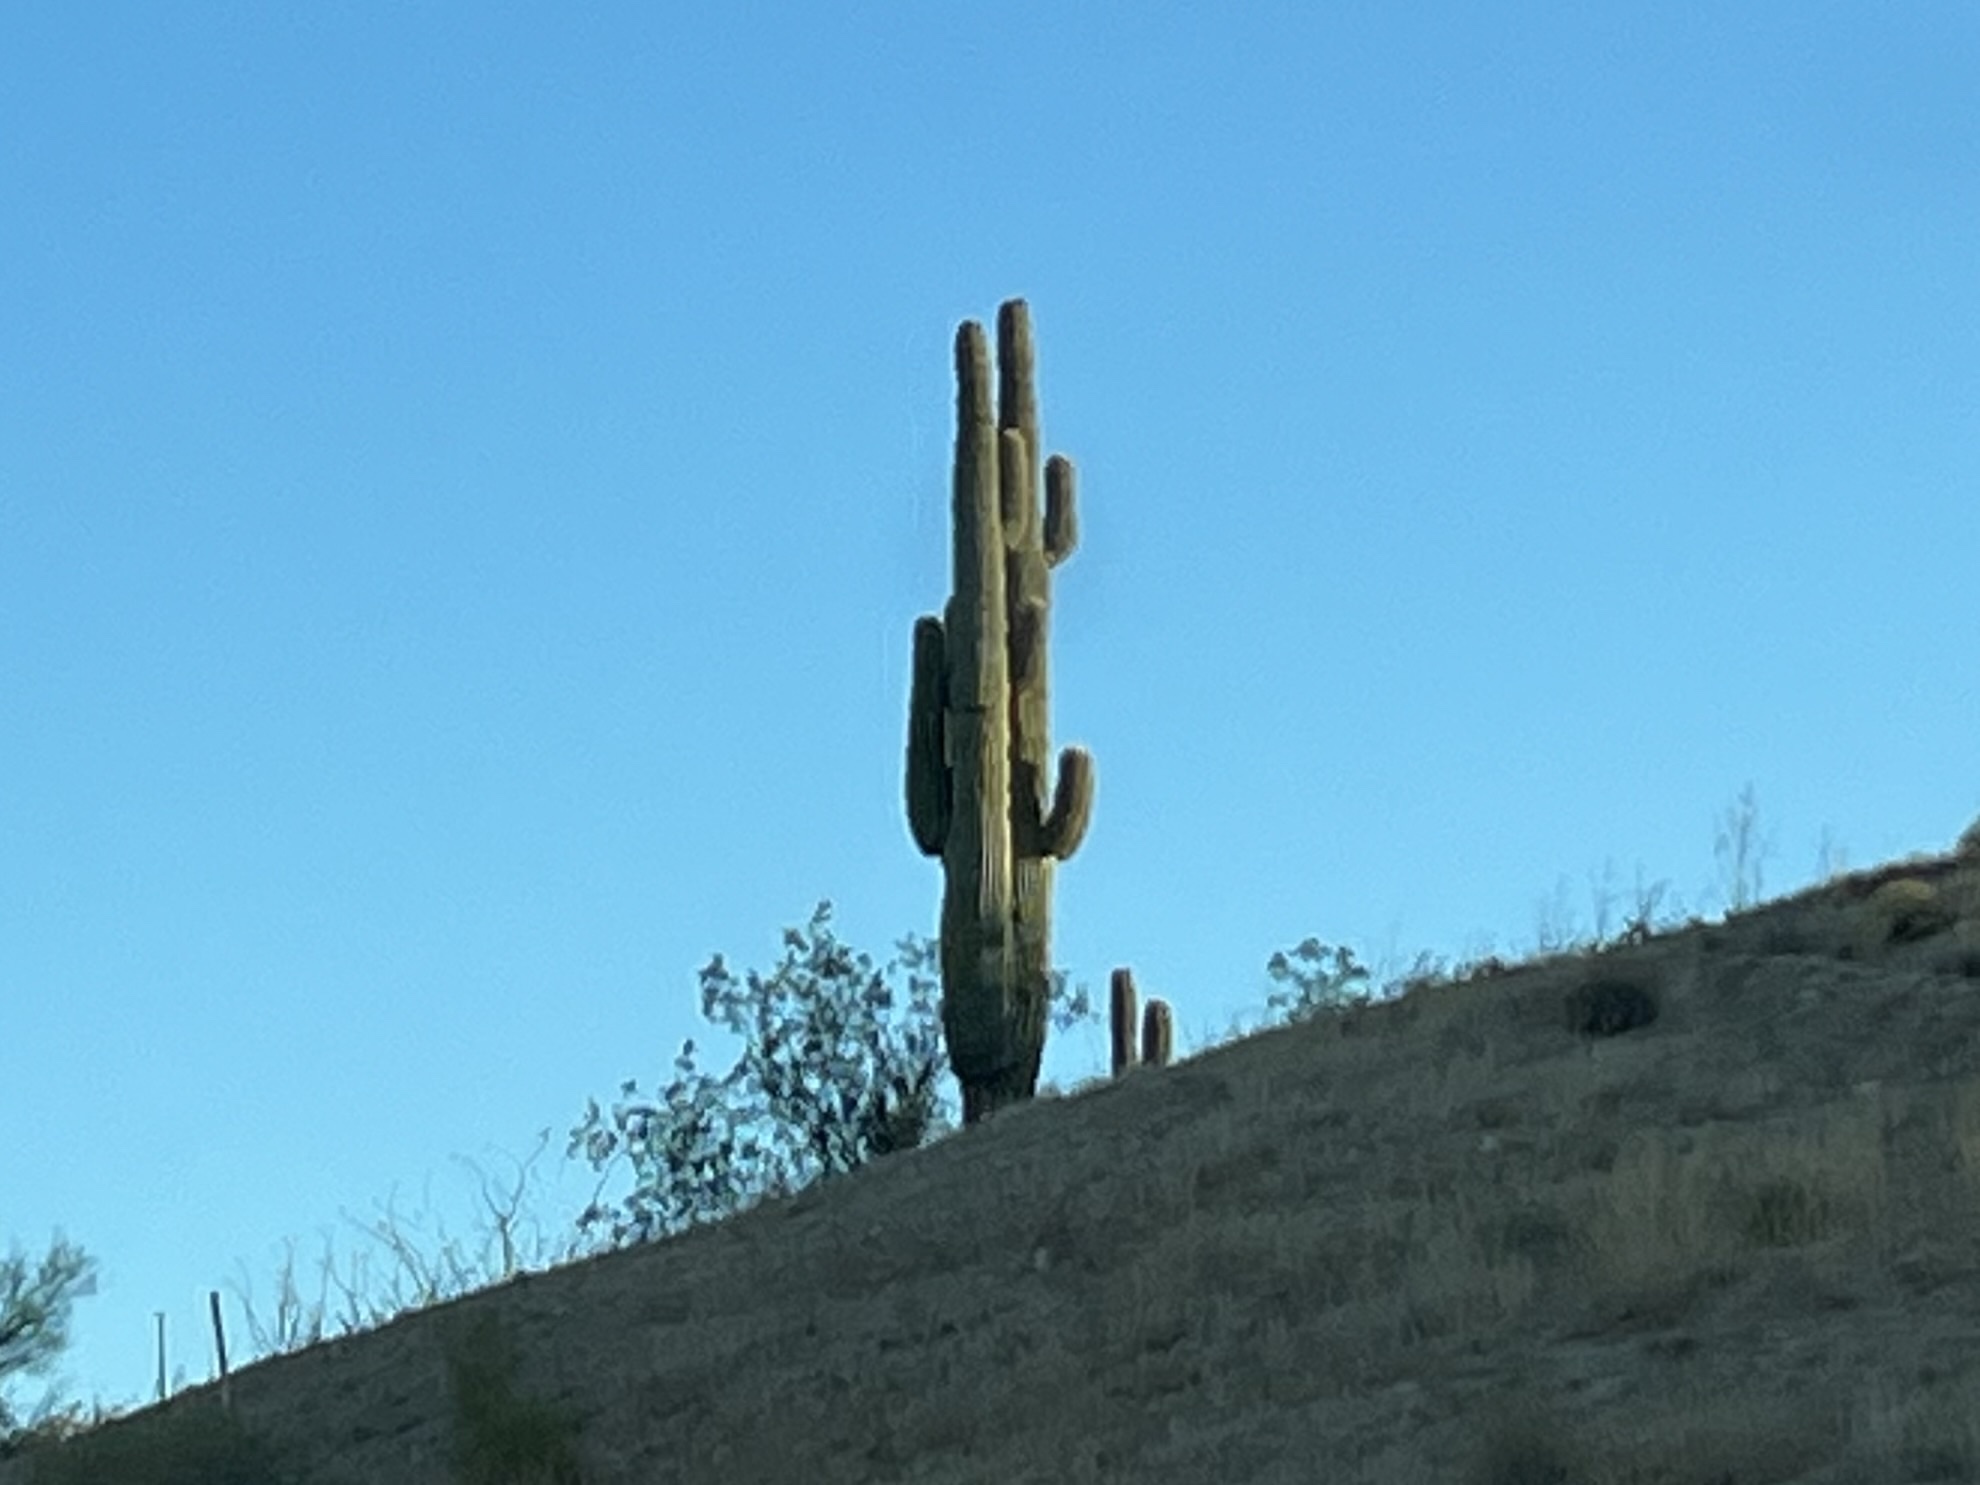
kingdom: Plantae
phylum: Tracheophyta
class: Magnoliopsida
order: Caryophyllales
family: Cactaceae
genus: Carnegiea
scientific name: Carnegiea gigantea
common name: Saguaro
